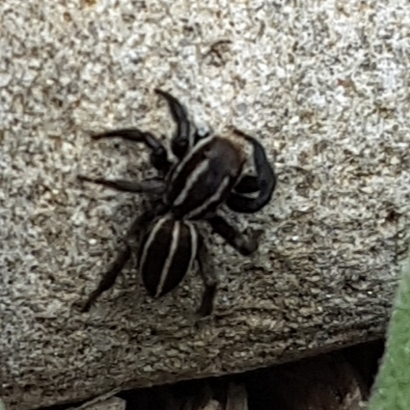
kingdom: Animalia
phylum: Arthropoda
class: Arachnida
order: Araneae
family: Salticidae
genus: Phlegra
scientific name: Phlegra bresnieri
